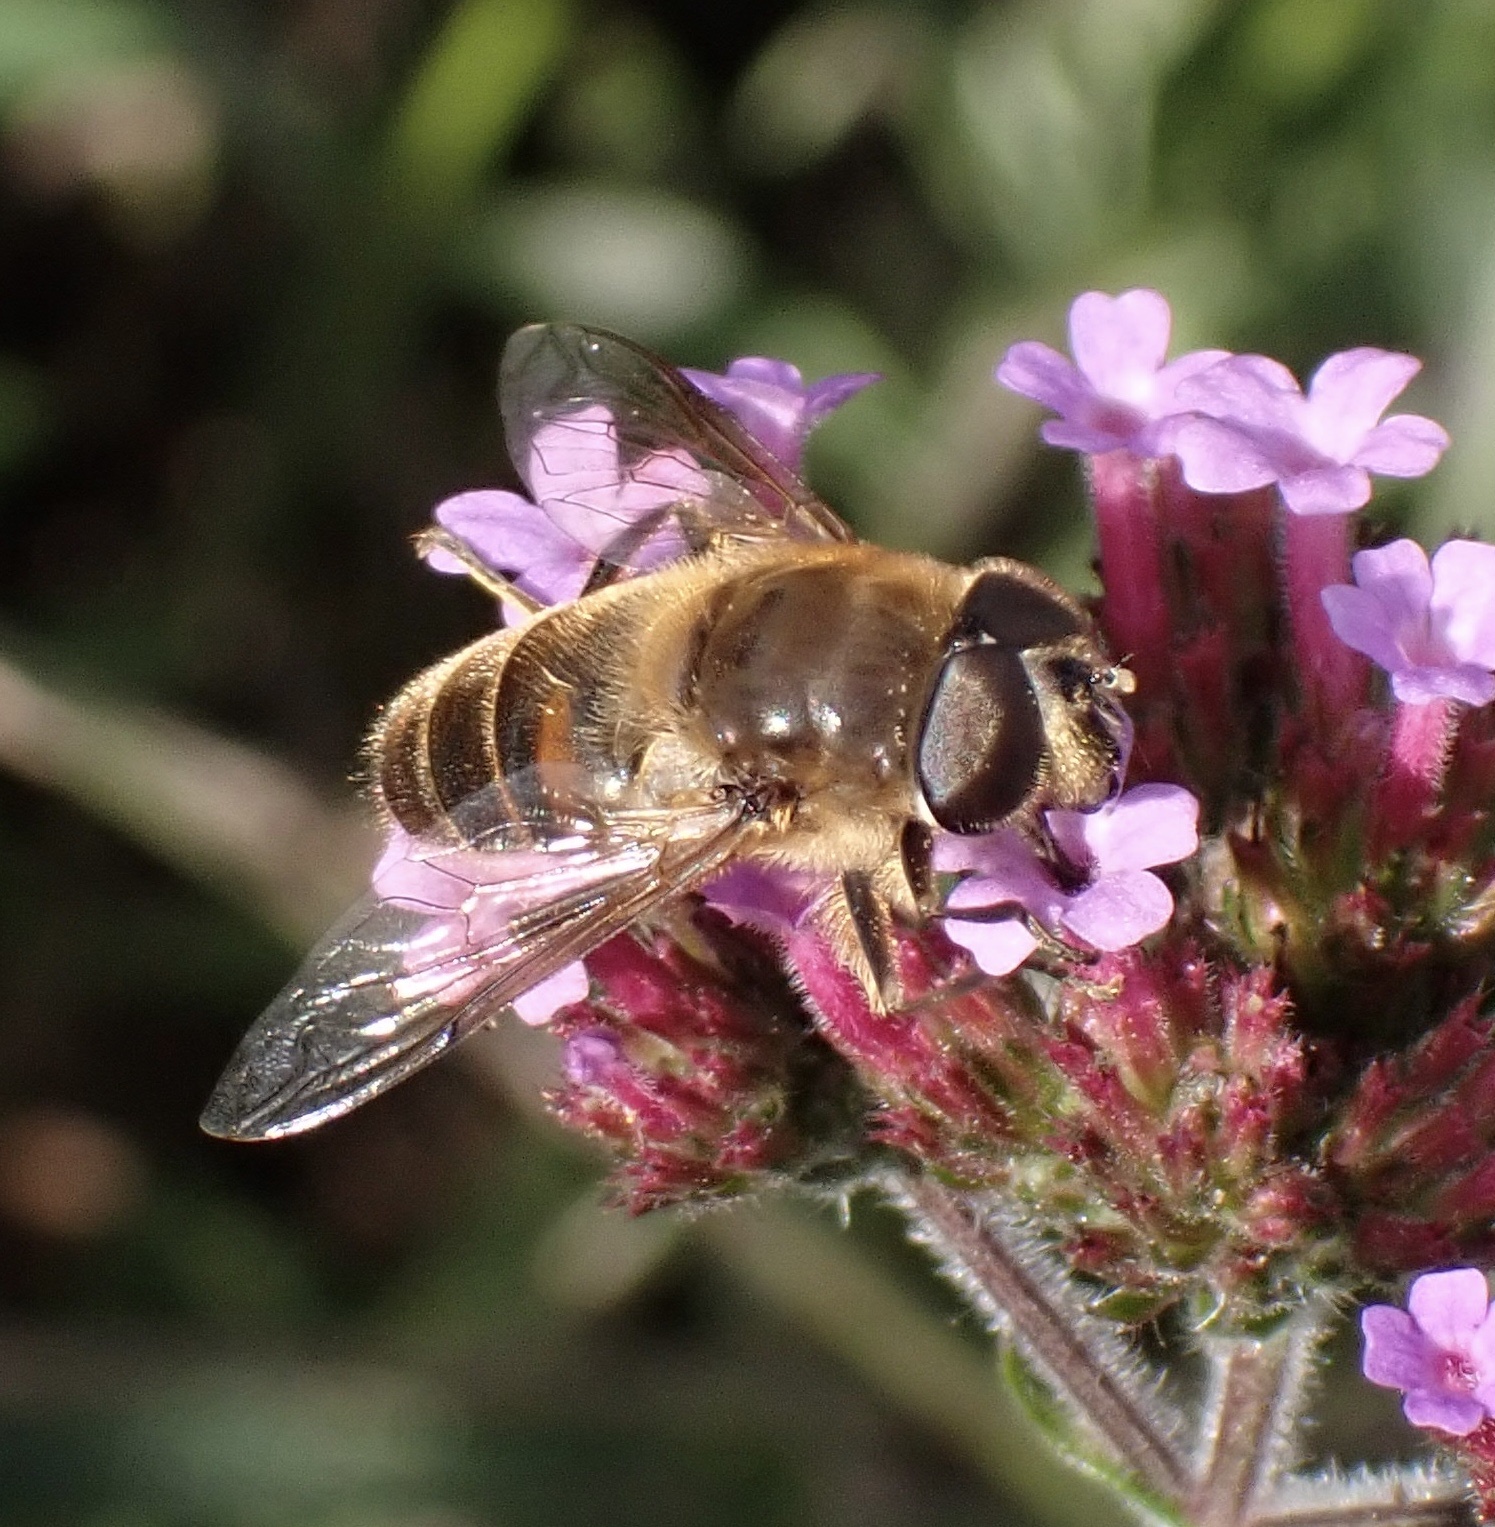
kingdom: Animalia
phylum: Arthropoda
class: Insecta
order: Diptera
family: Syrphidae
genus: Eristalis
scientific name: Eristalis tenax
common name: Drone fly
